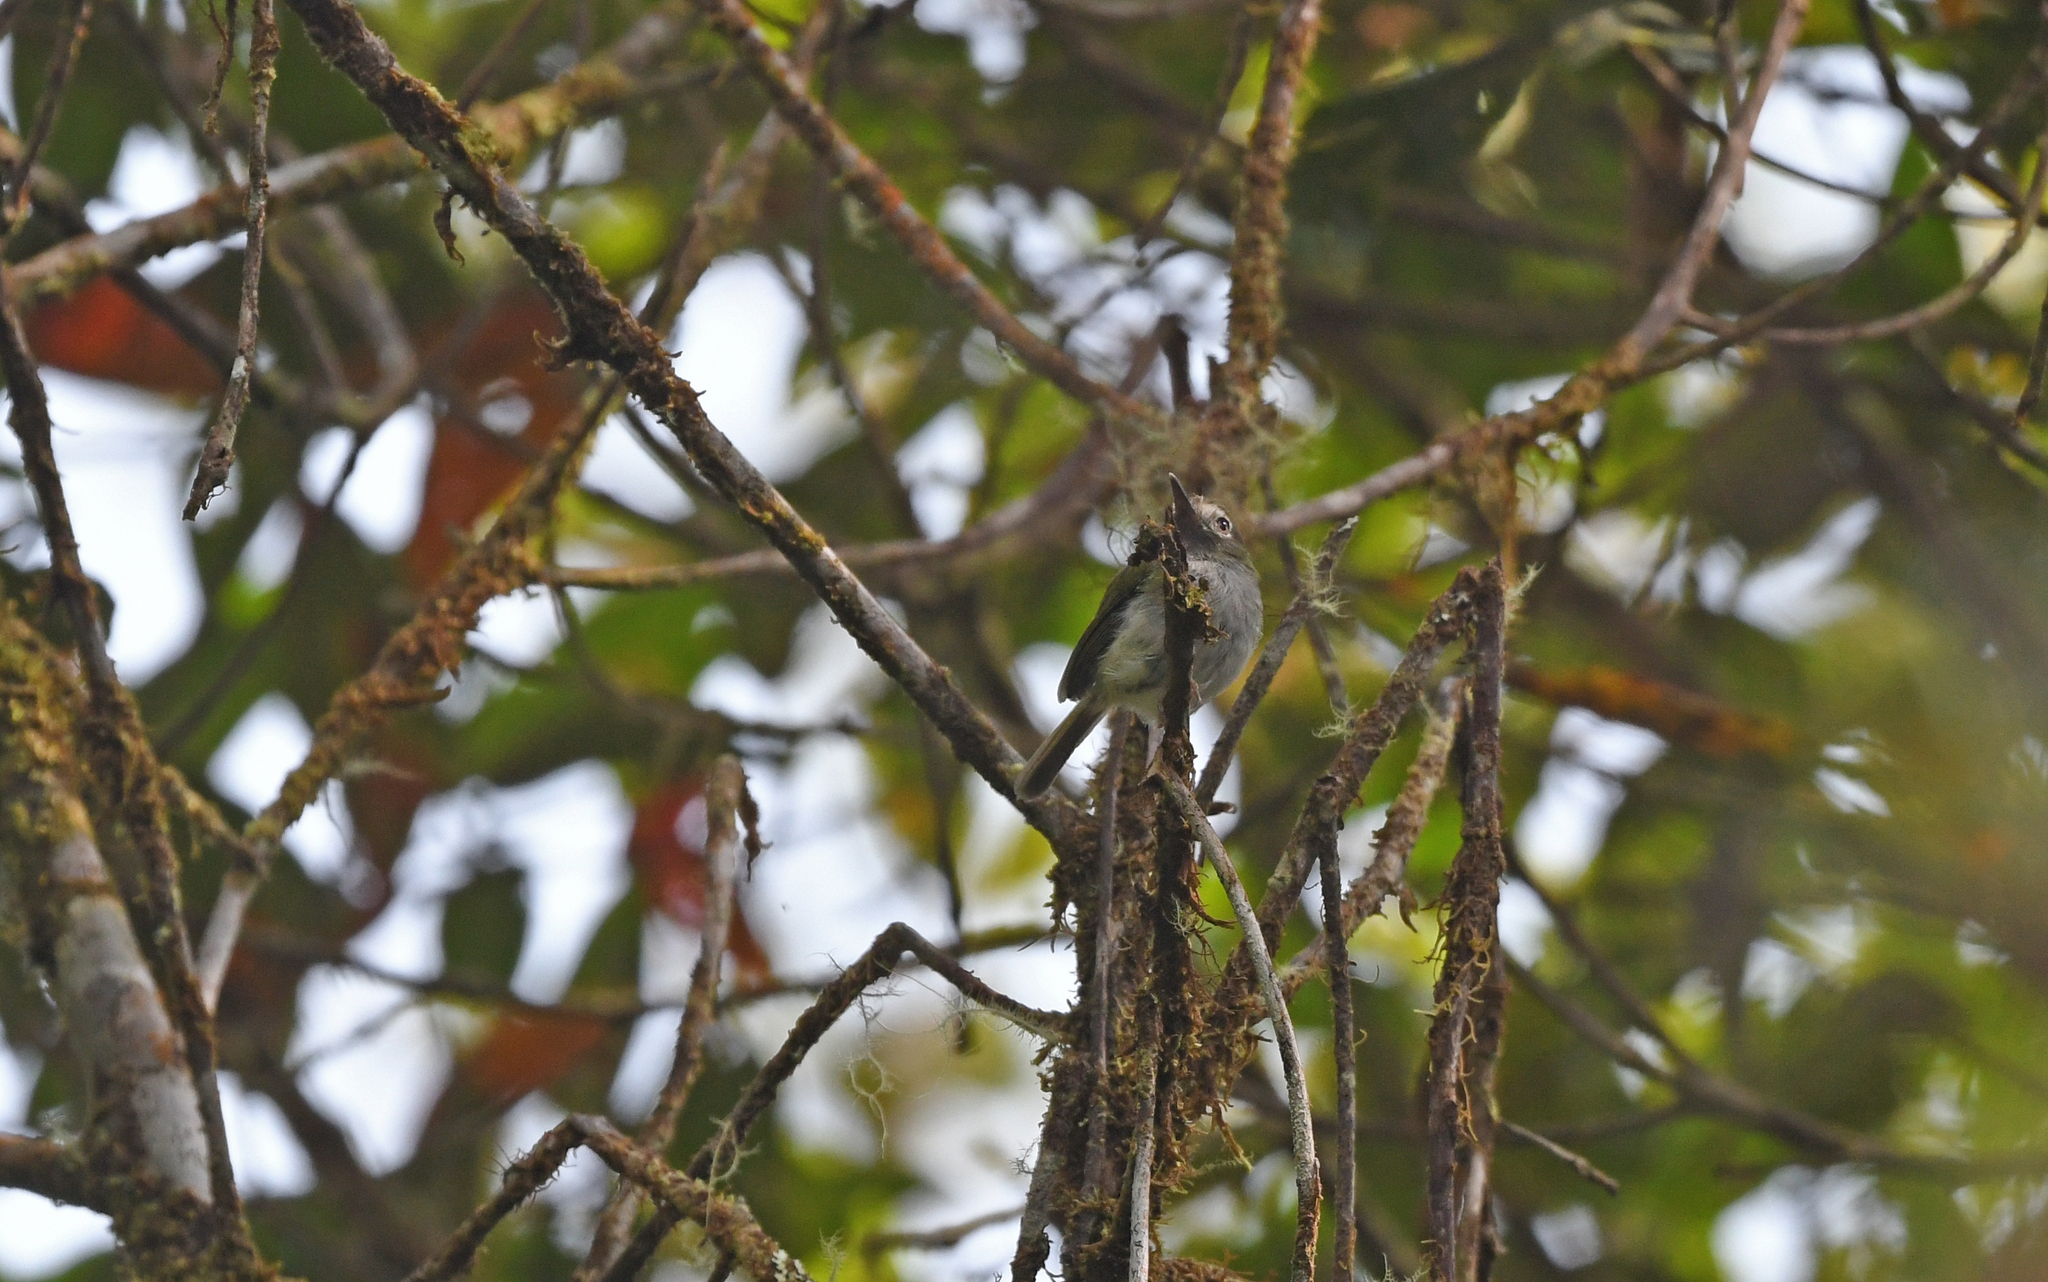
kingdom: Animalia
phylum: Chordata
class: Aves
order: Passeriformes
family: Tyrannidae
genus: Hemitriccus
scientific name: Hemitriccus granadensis
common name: Black-throated tody-tyrant
